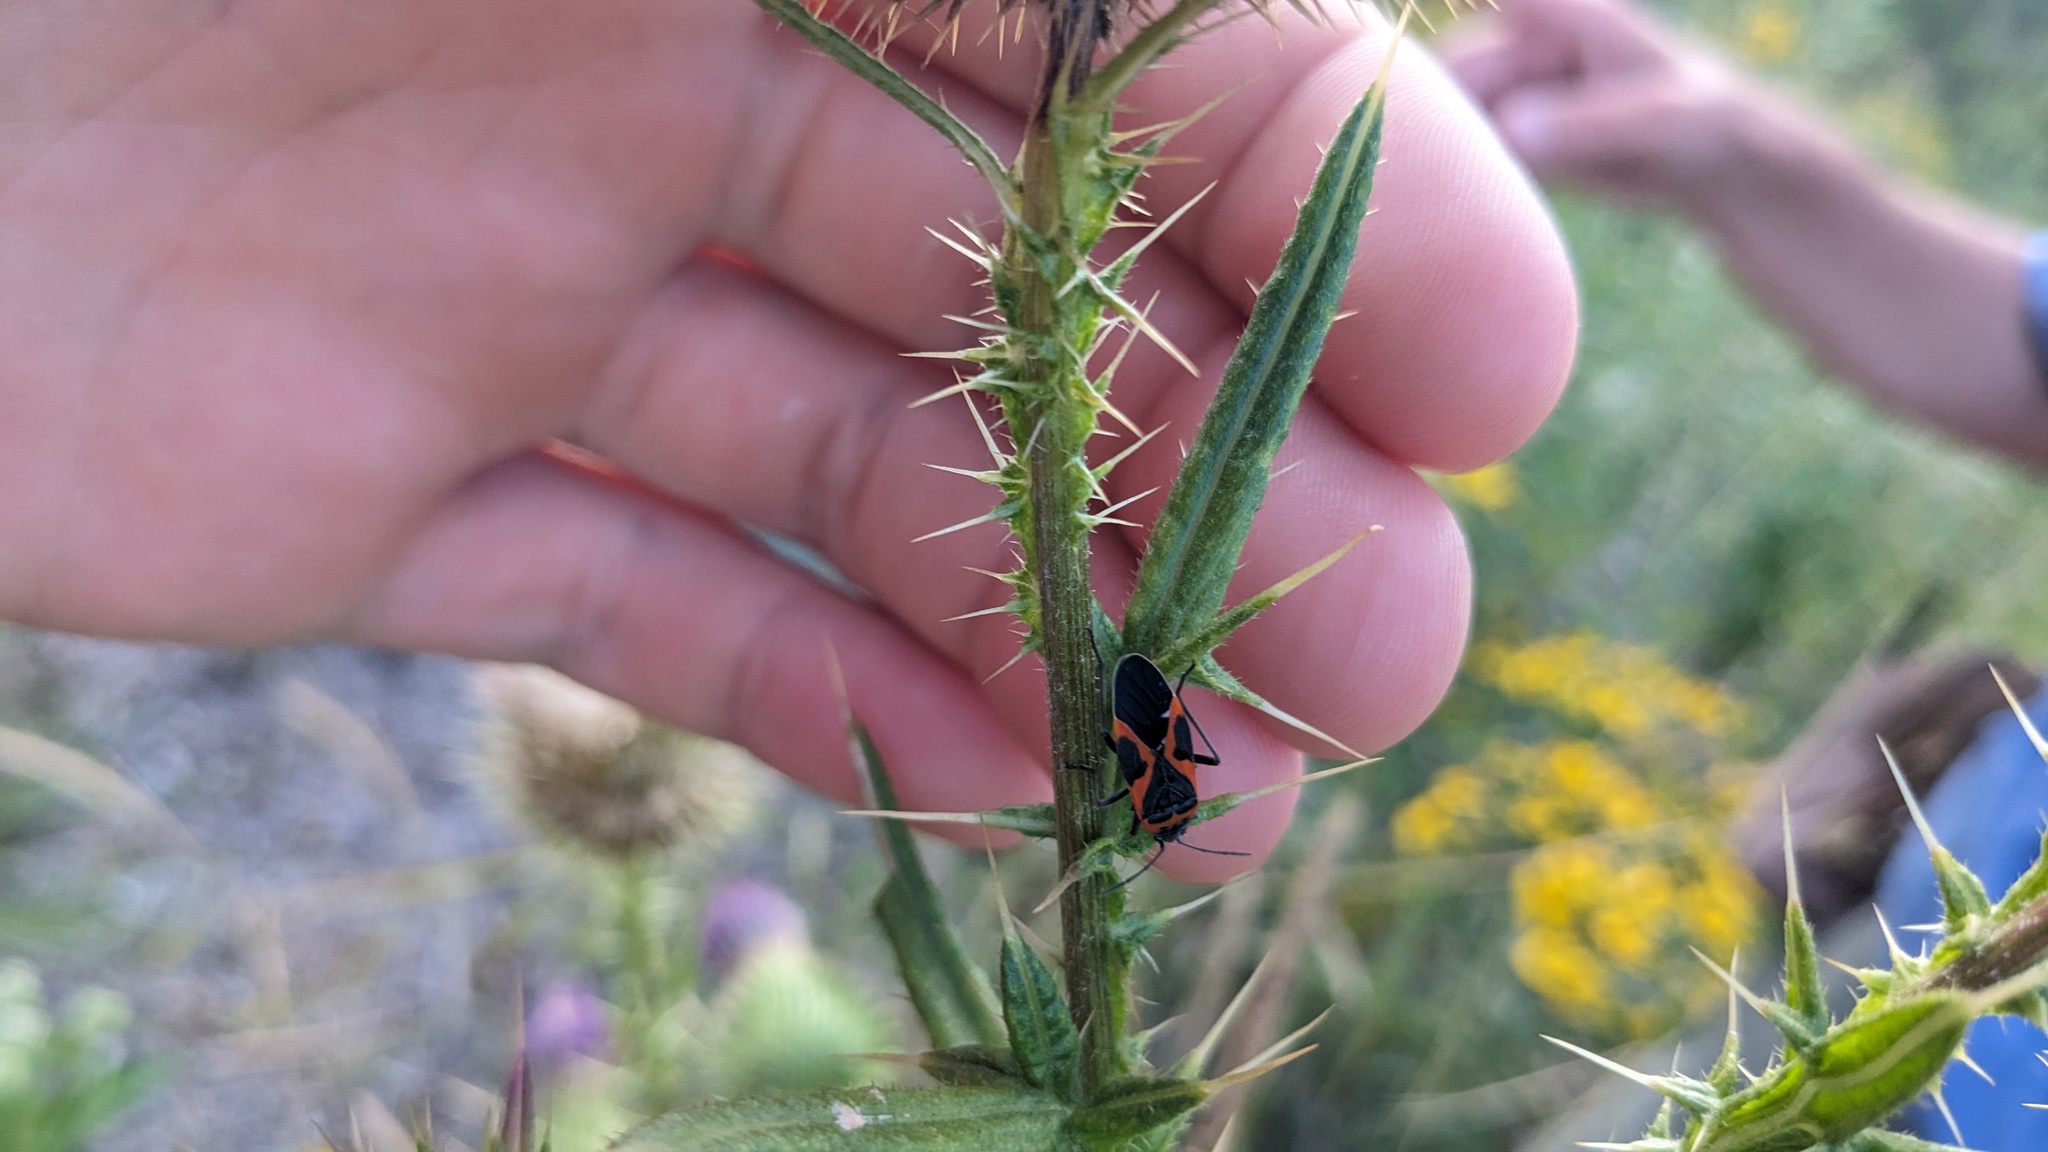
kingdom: Animalia
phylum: Arthropoda
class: Insecta
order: Hemiptera
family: Lygaeidae
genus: Lygaeus
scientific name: Lygaeus kalmii
